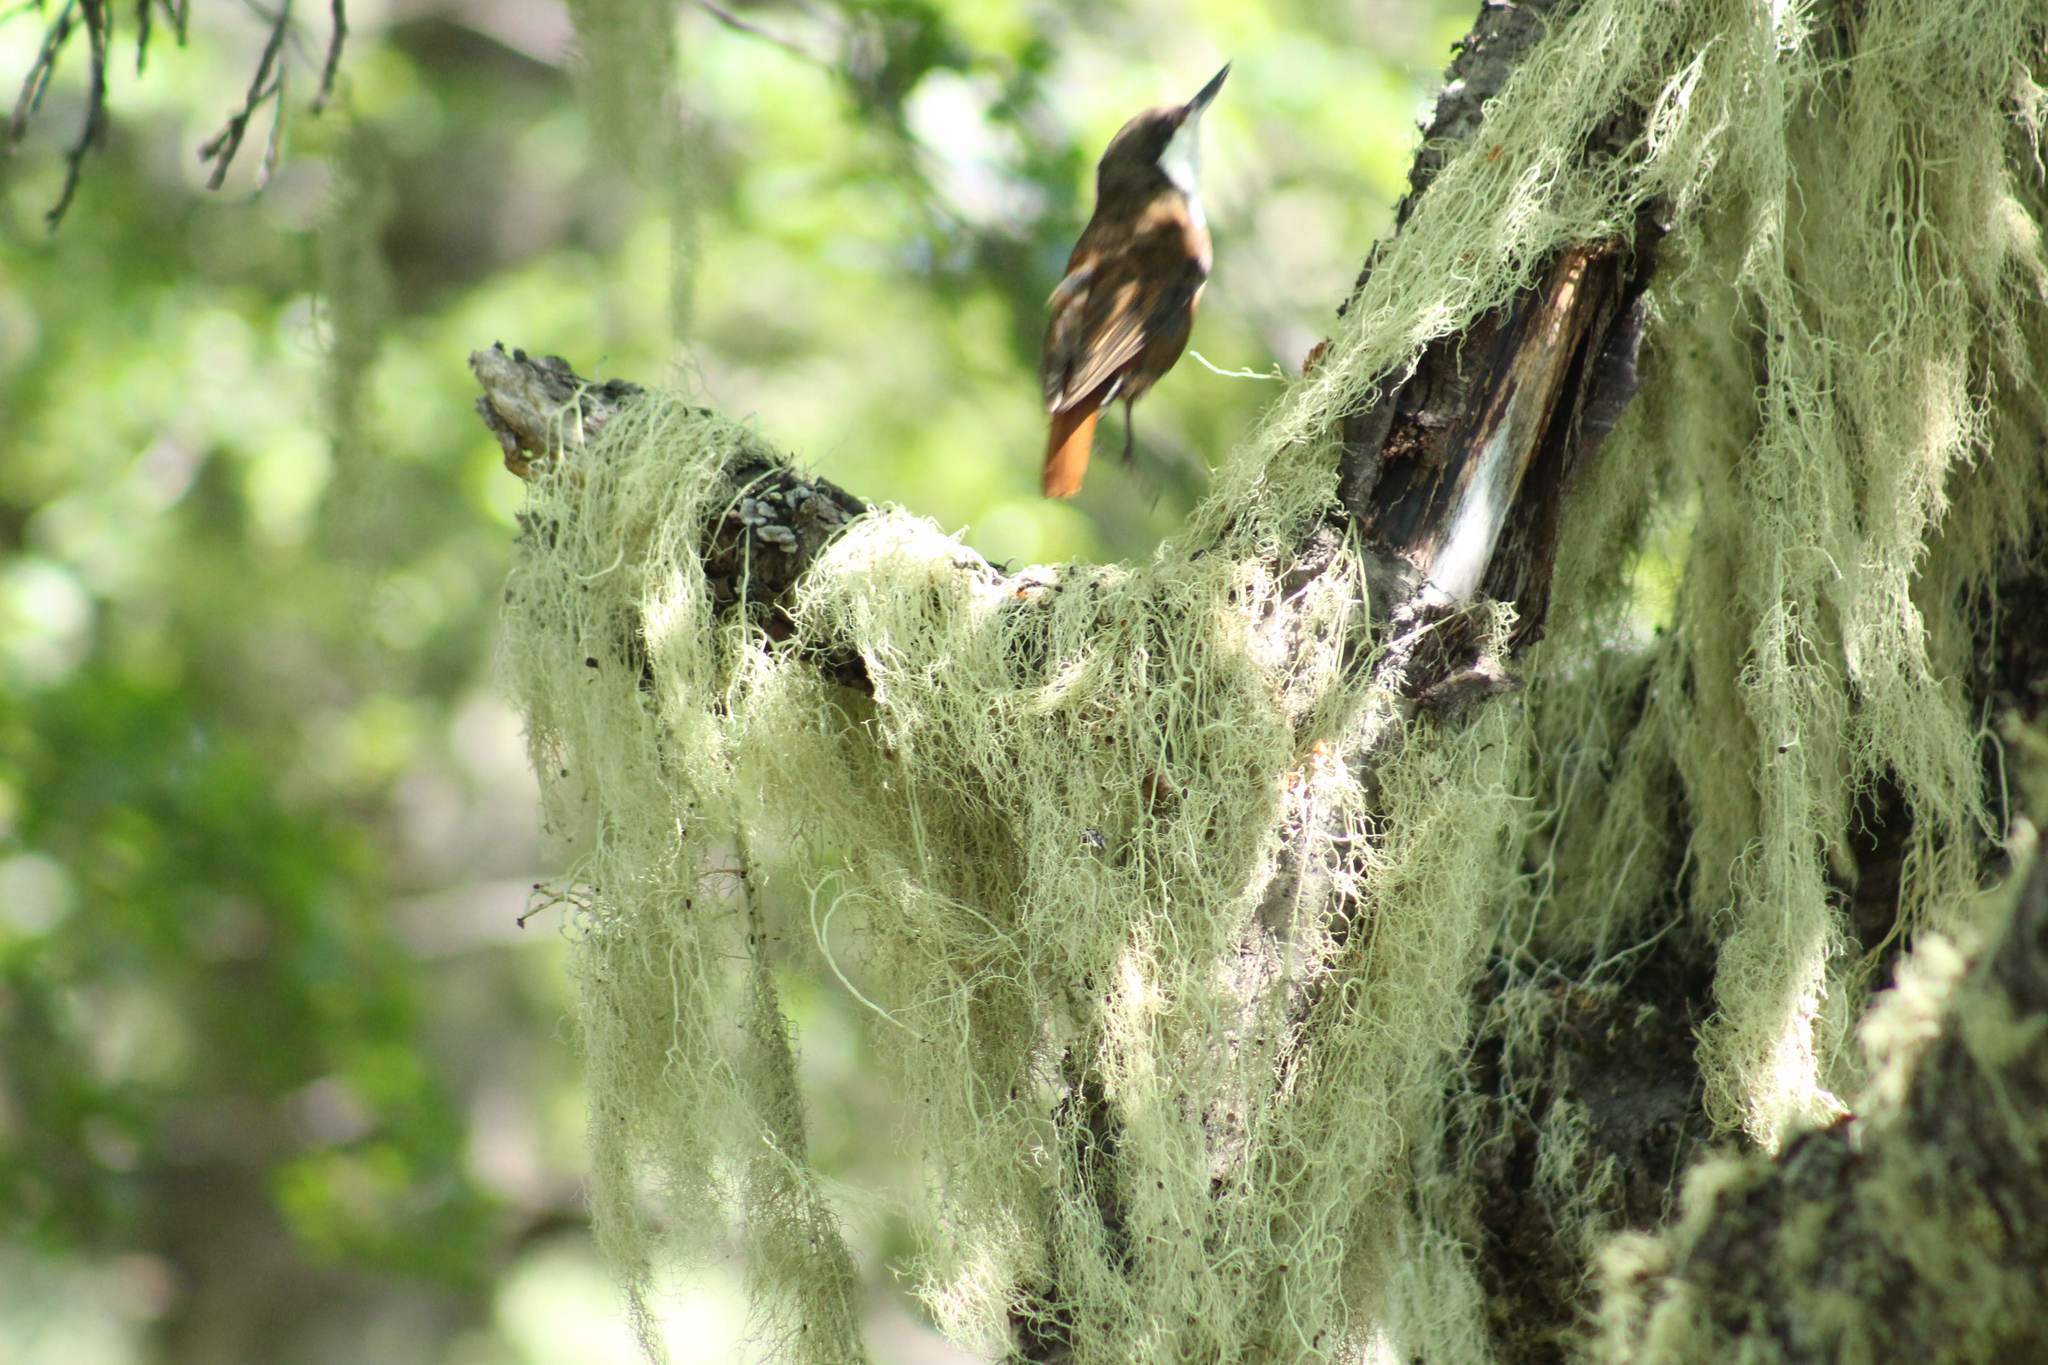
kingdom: Animalia
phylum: Chordata
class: Aves
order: Passeriformes
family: Furnariidae
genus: Pygarrhichas
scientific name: Pygarrhichas albogularis
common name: White-throated treerunner
